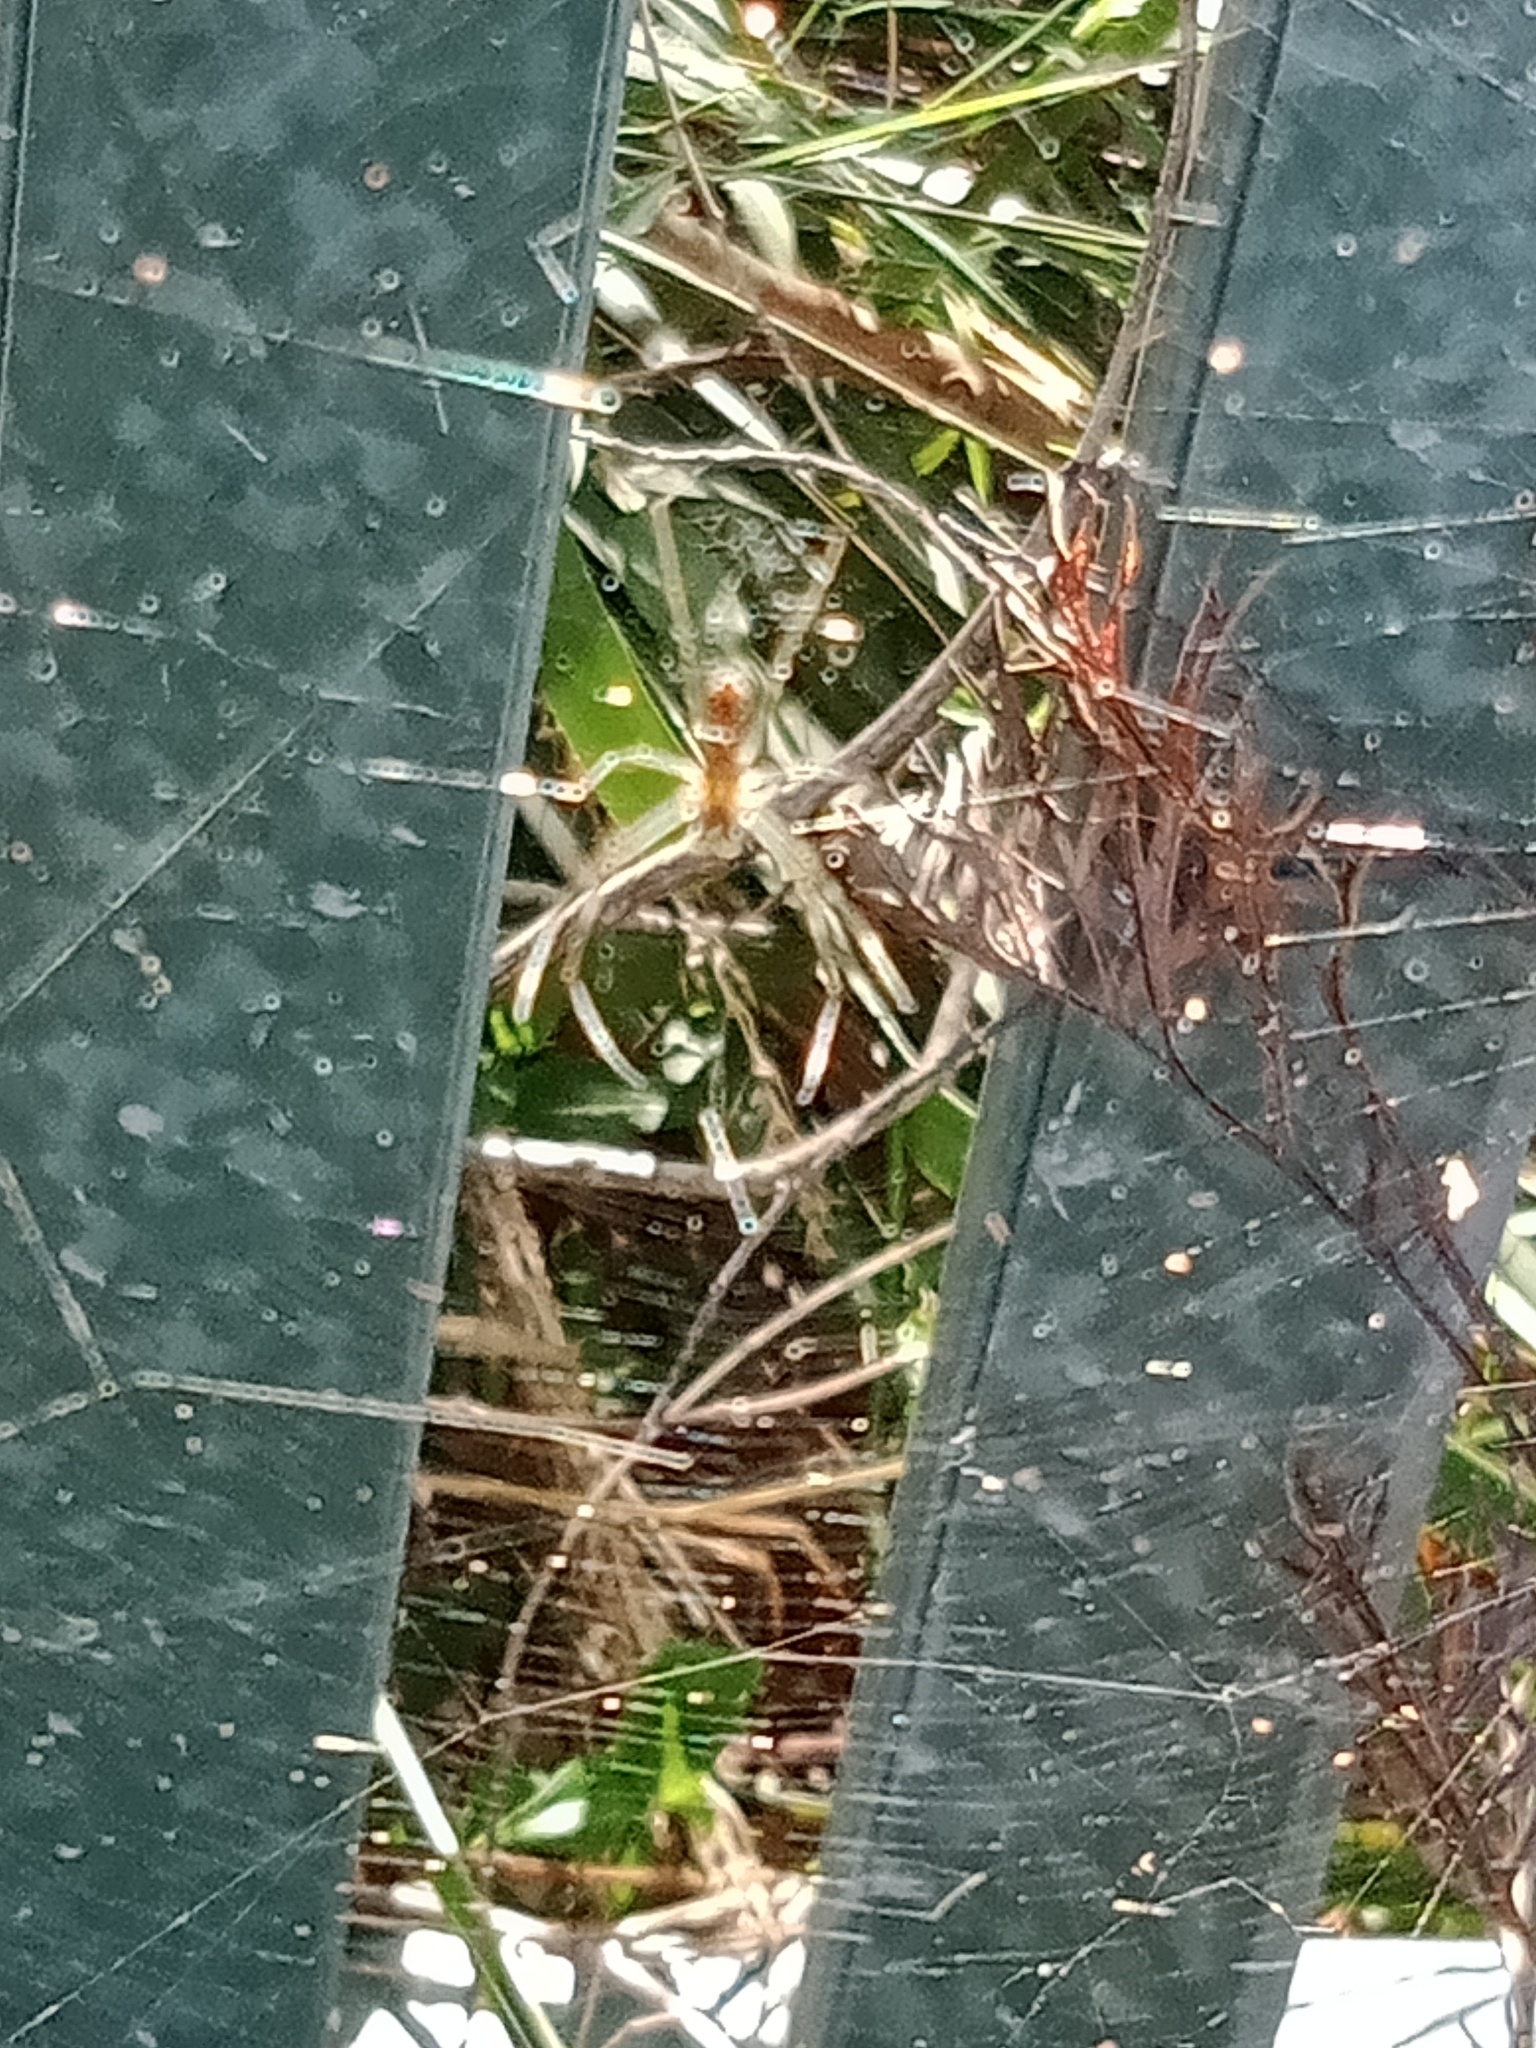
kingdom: Animalia
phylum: Arthropoda
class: Arachnida
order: Araneae
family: Araneidae
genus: Trichonephila
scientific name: Trichonephila plumipes
